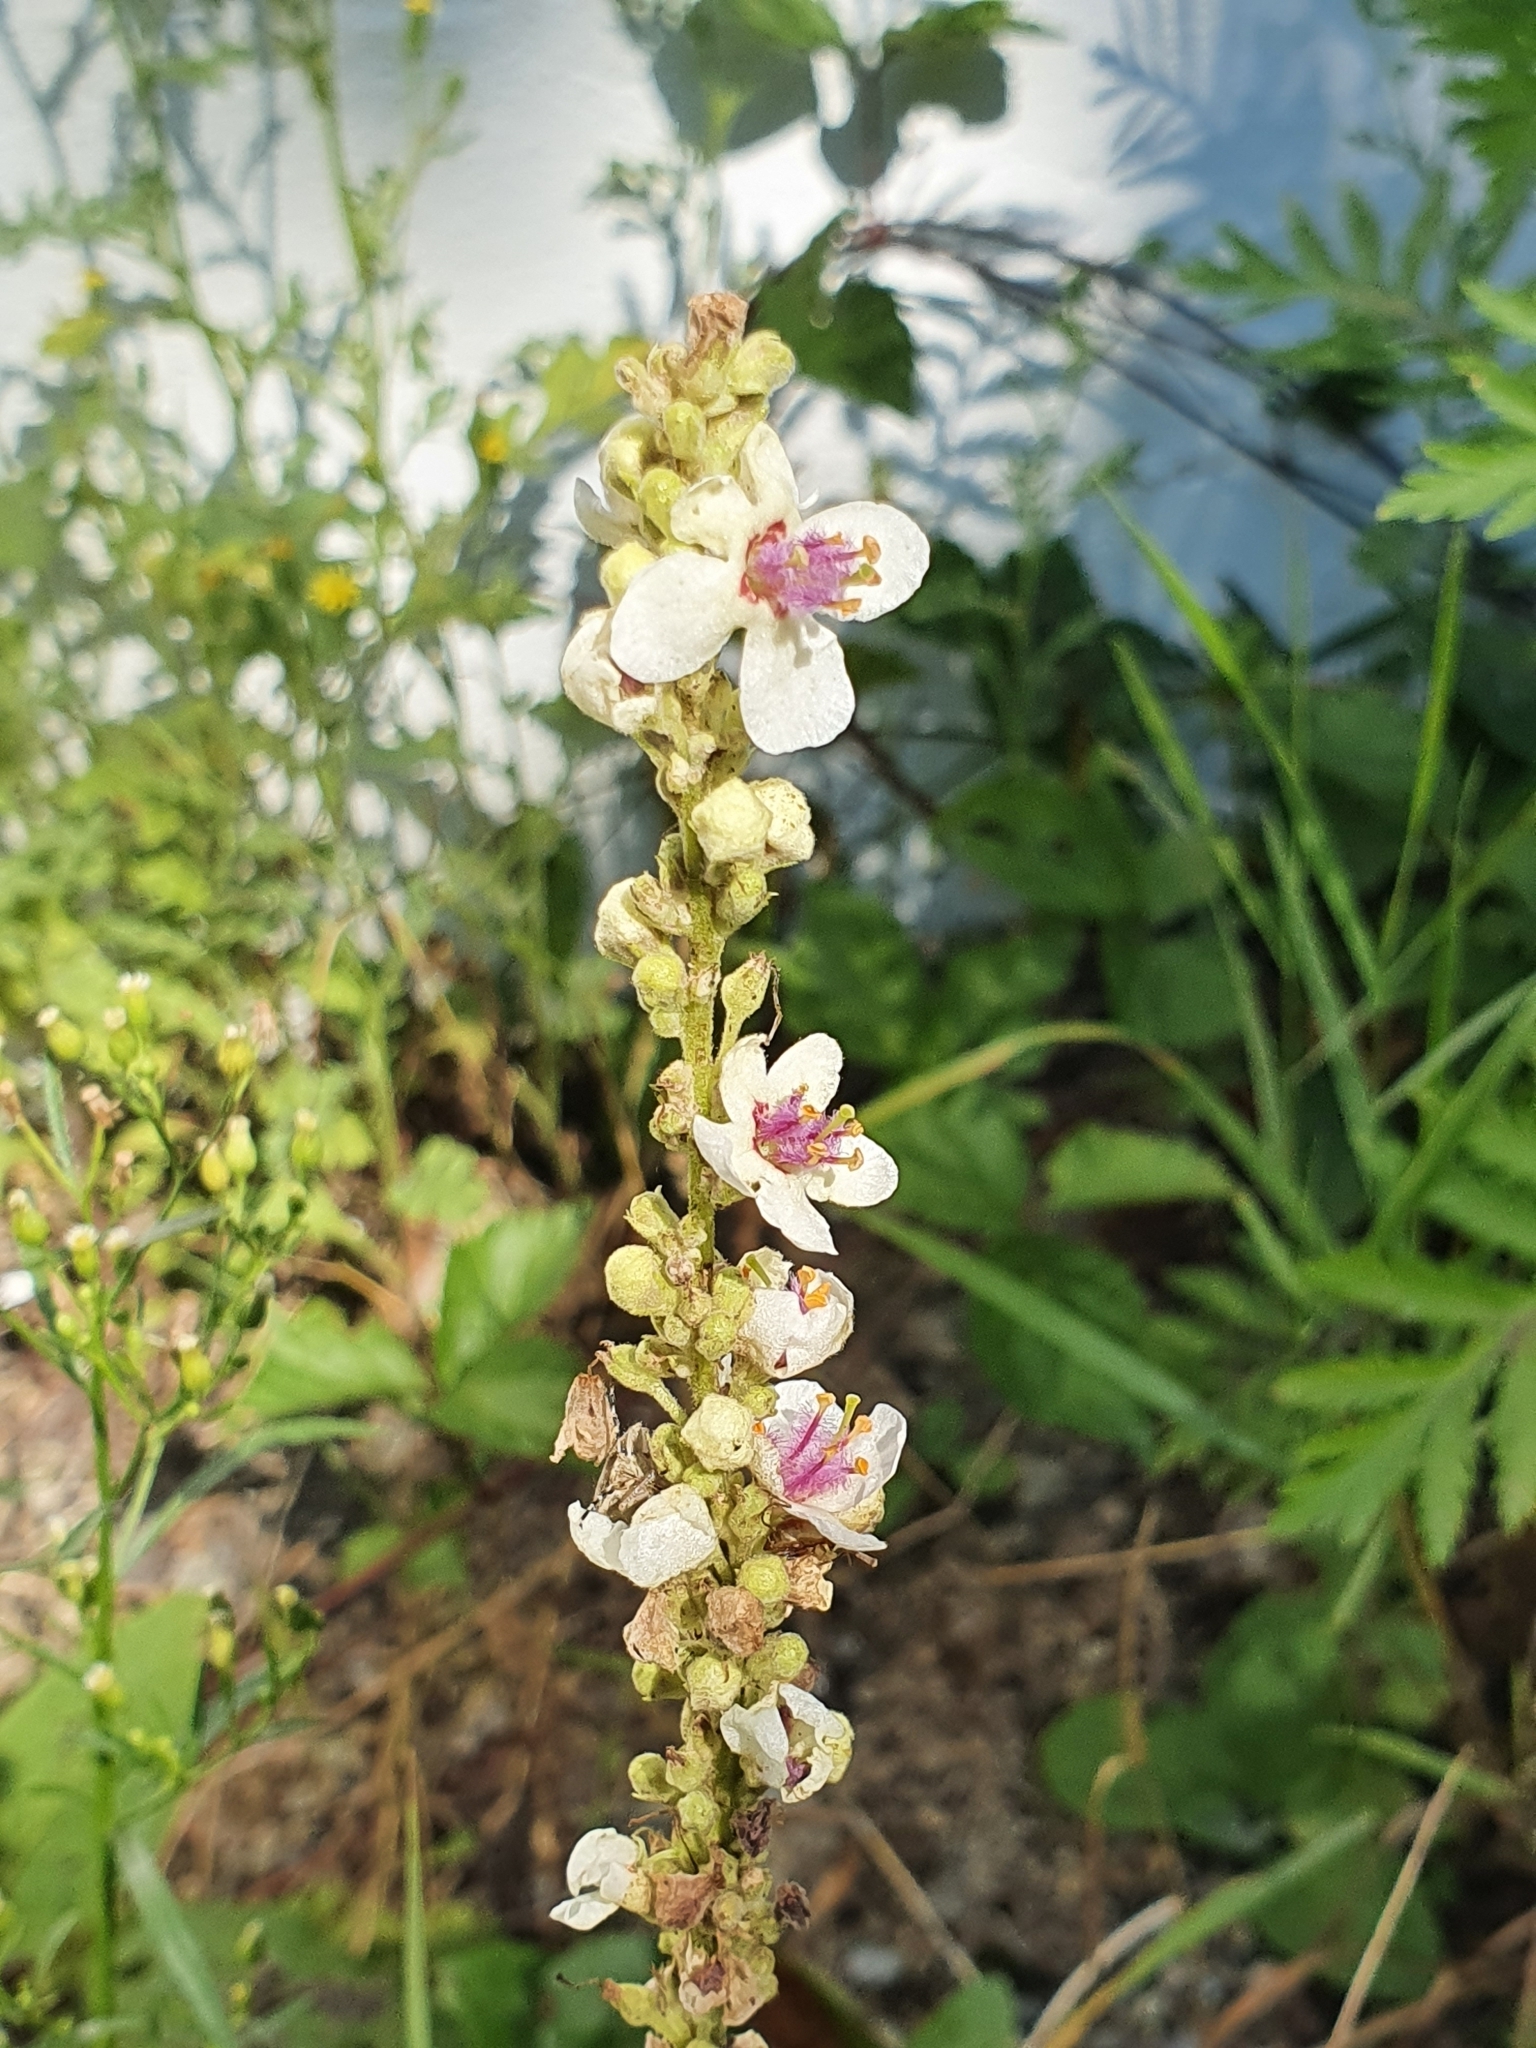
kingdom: Plantae
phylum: Tracheophyta
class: Magnoliopsida
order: Lamiales
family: Scrophulariaceae
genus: Verbascum
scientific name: Verbascum nigrum
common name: Dark mullein
